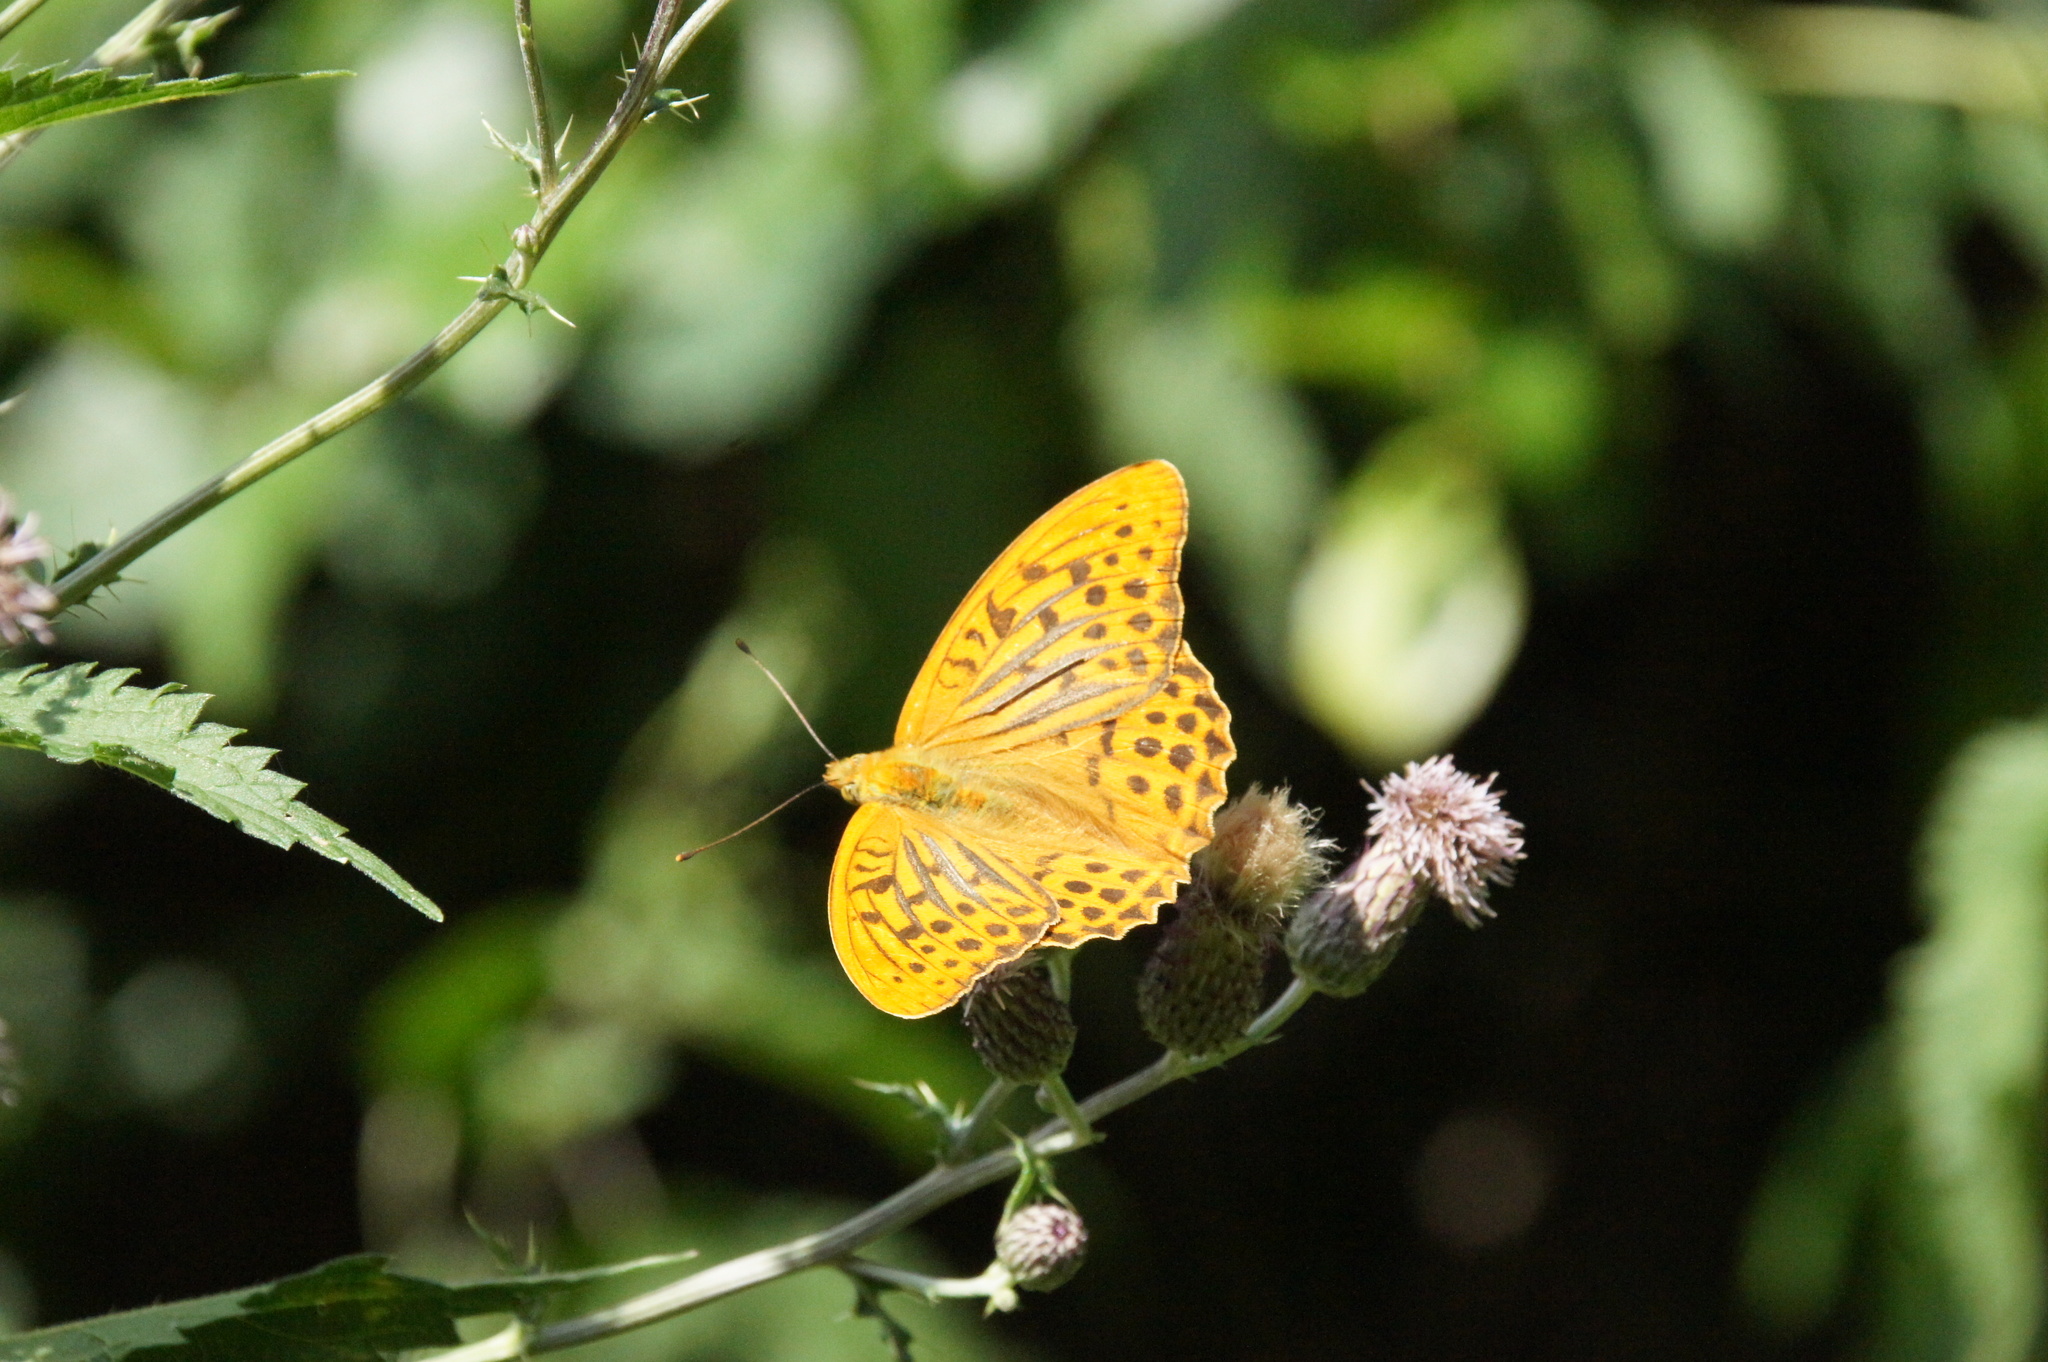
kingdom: Animalia
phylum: Arthropoda
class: Insecta
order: Lepidoptera
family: Nymphalidae
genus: Argynnis
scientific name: Argynnis paphia
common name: Silver-washed fritillary
